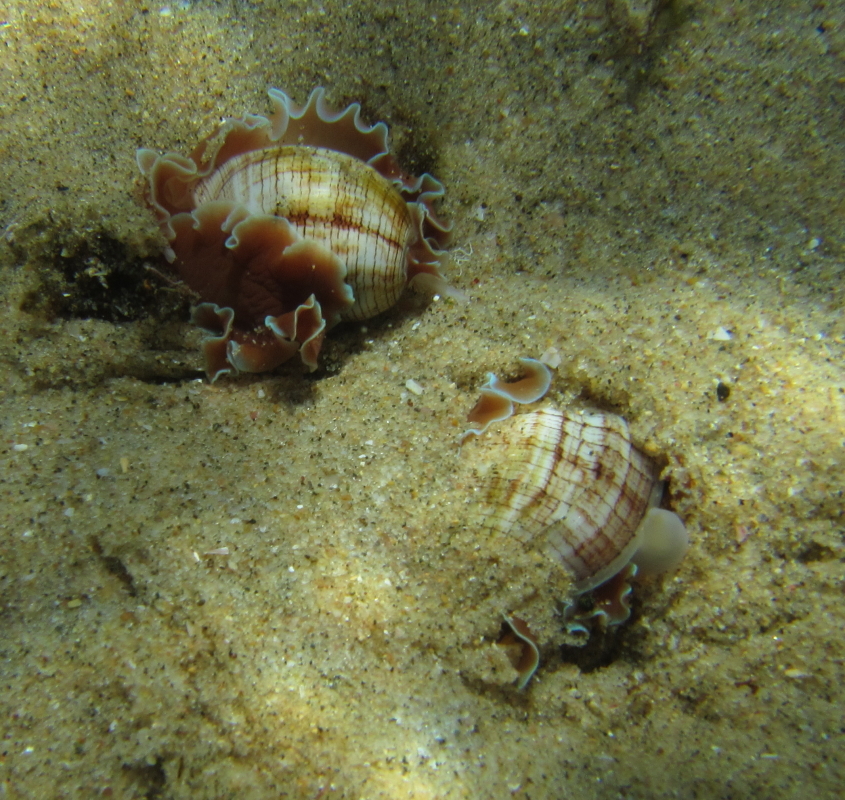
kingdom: Animalia
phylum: Mollusca
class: Gastropoda
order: Cephalaspidea
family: Aplustridae
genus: Hydatina
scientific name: Hydatina physis
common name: Brown-line paperbubble
